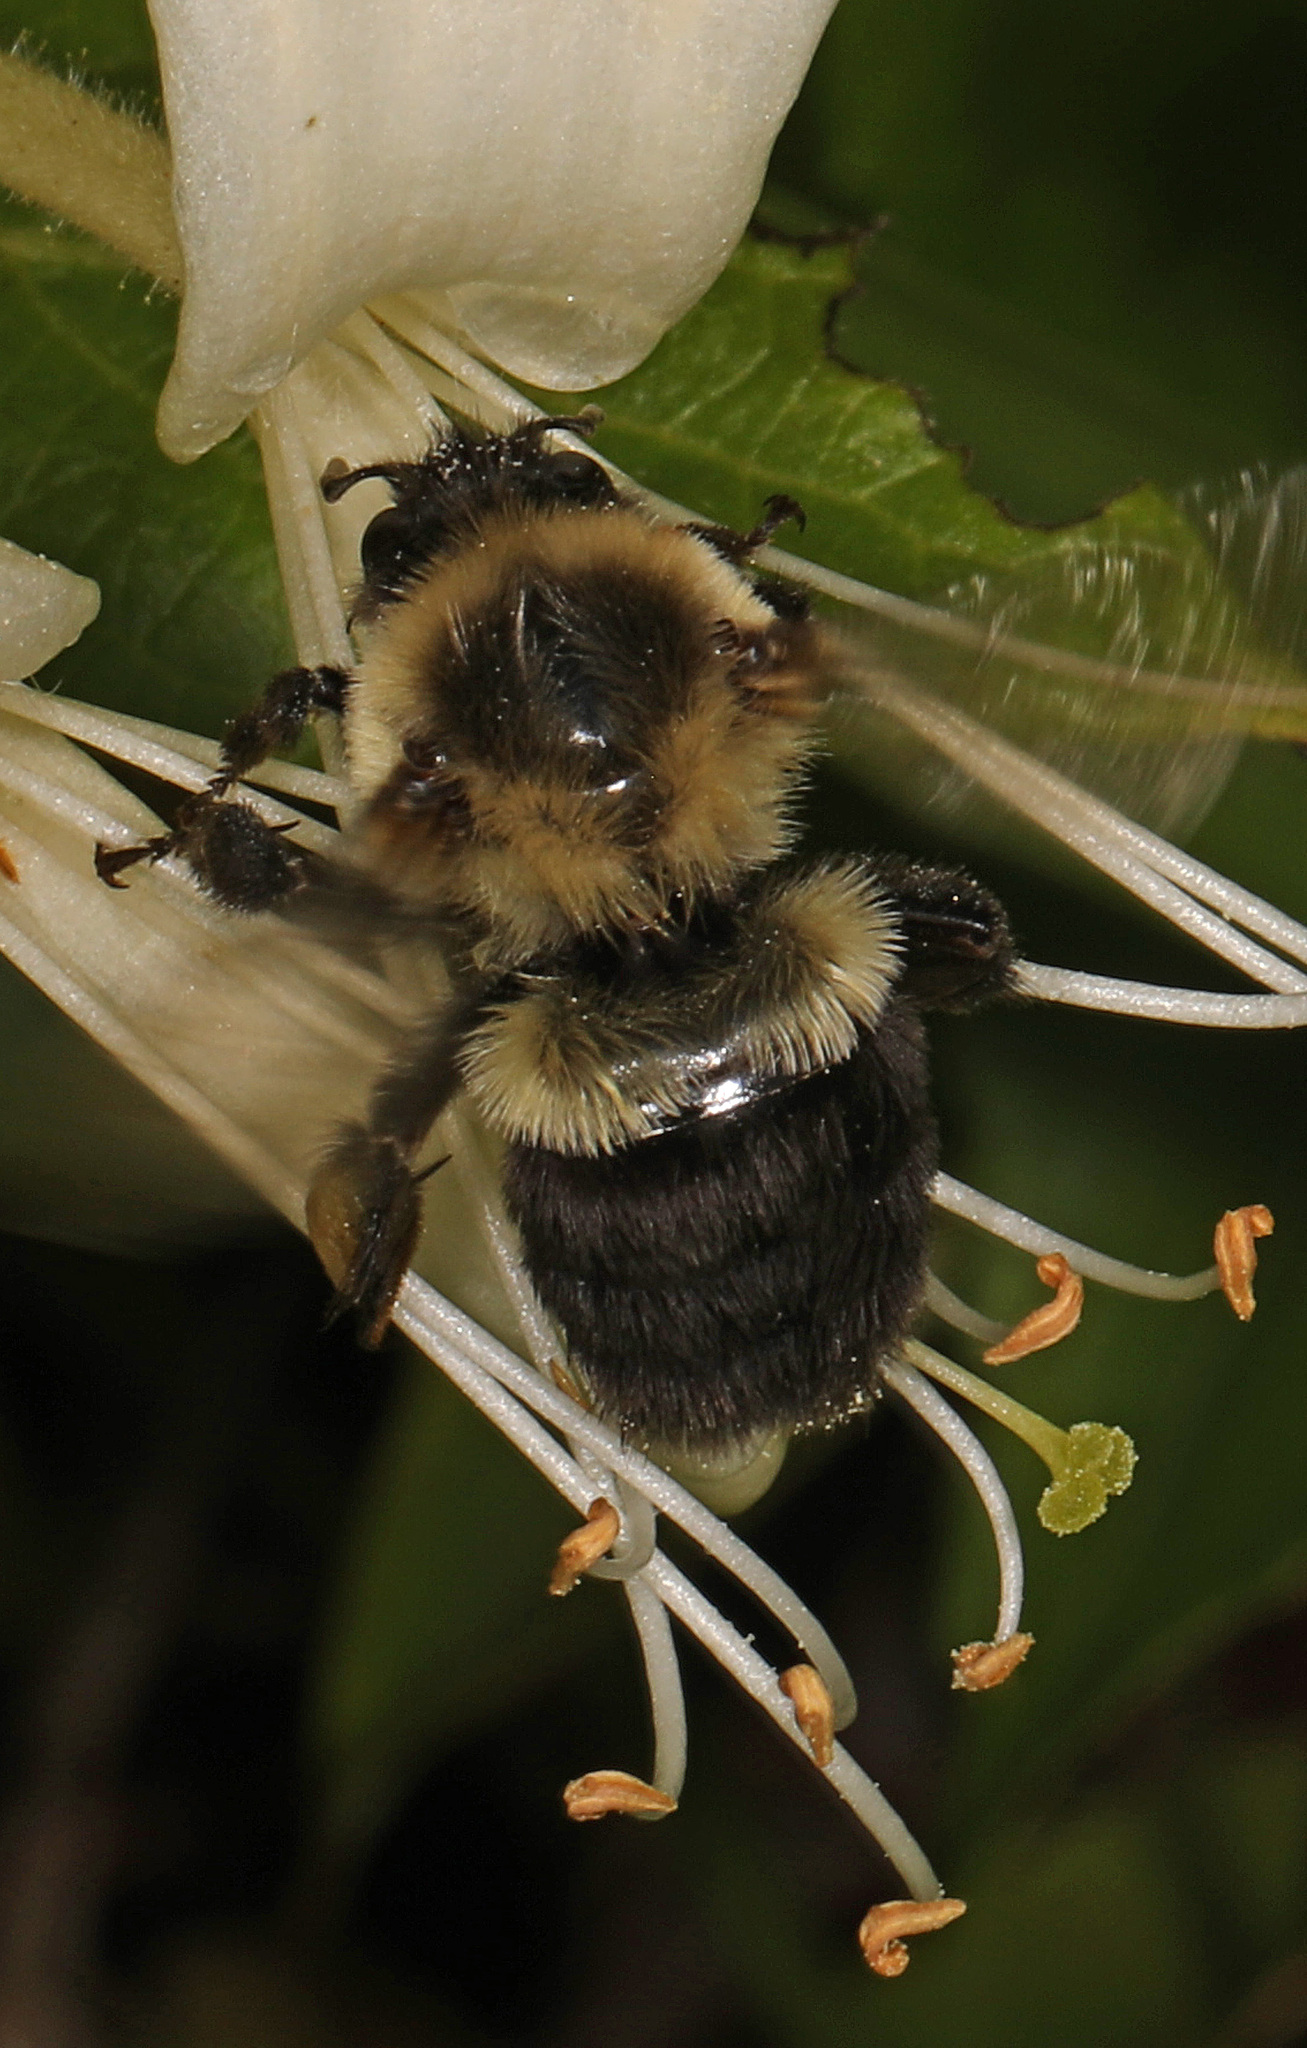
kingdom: Animalia
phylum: Arthropoda
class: Insecta
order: Hymenoptera
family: Apidae
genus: Bombus
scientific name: Bombus impatiens
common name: Common eastern bumble bee
